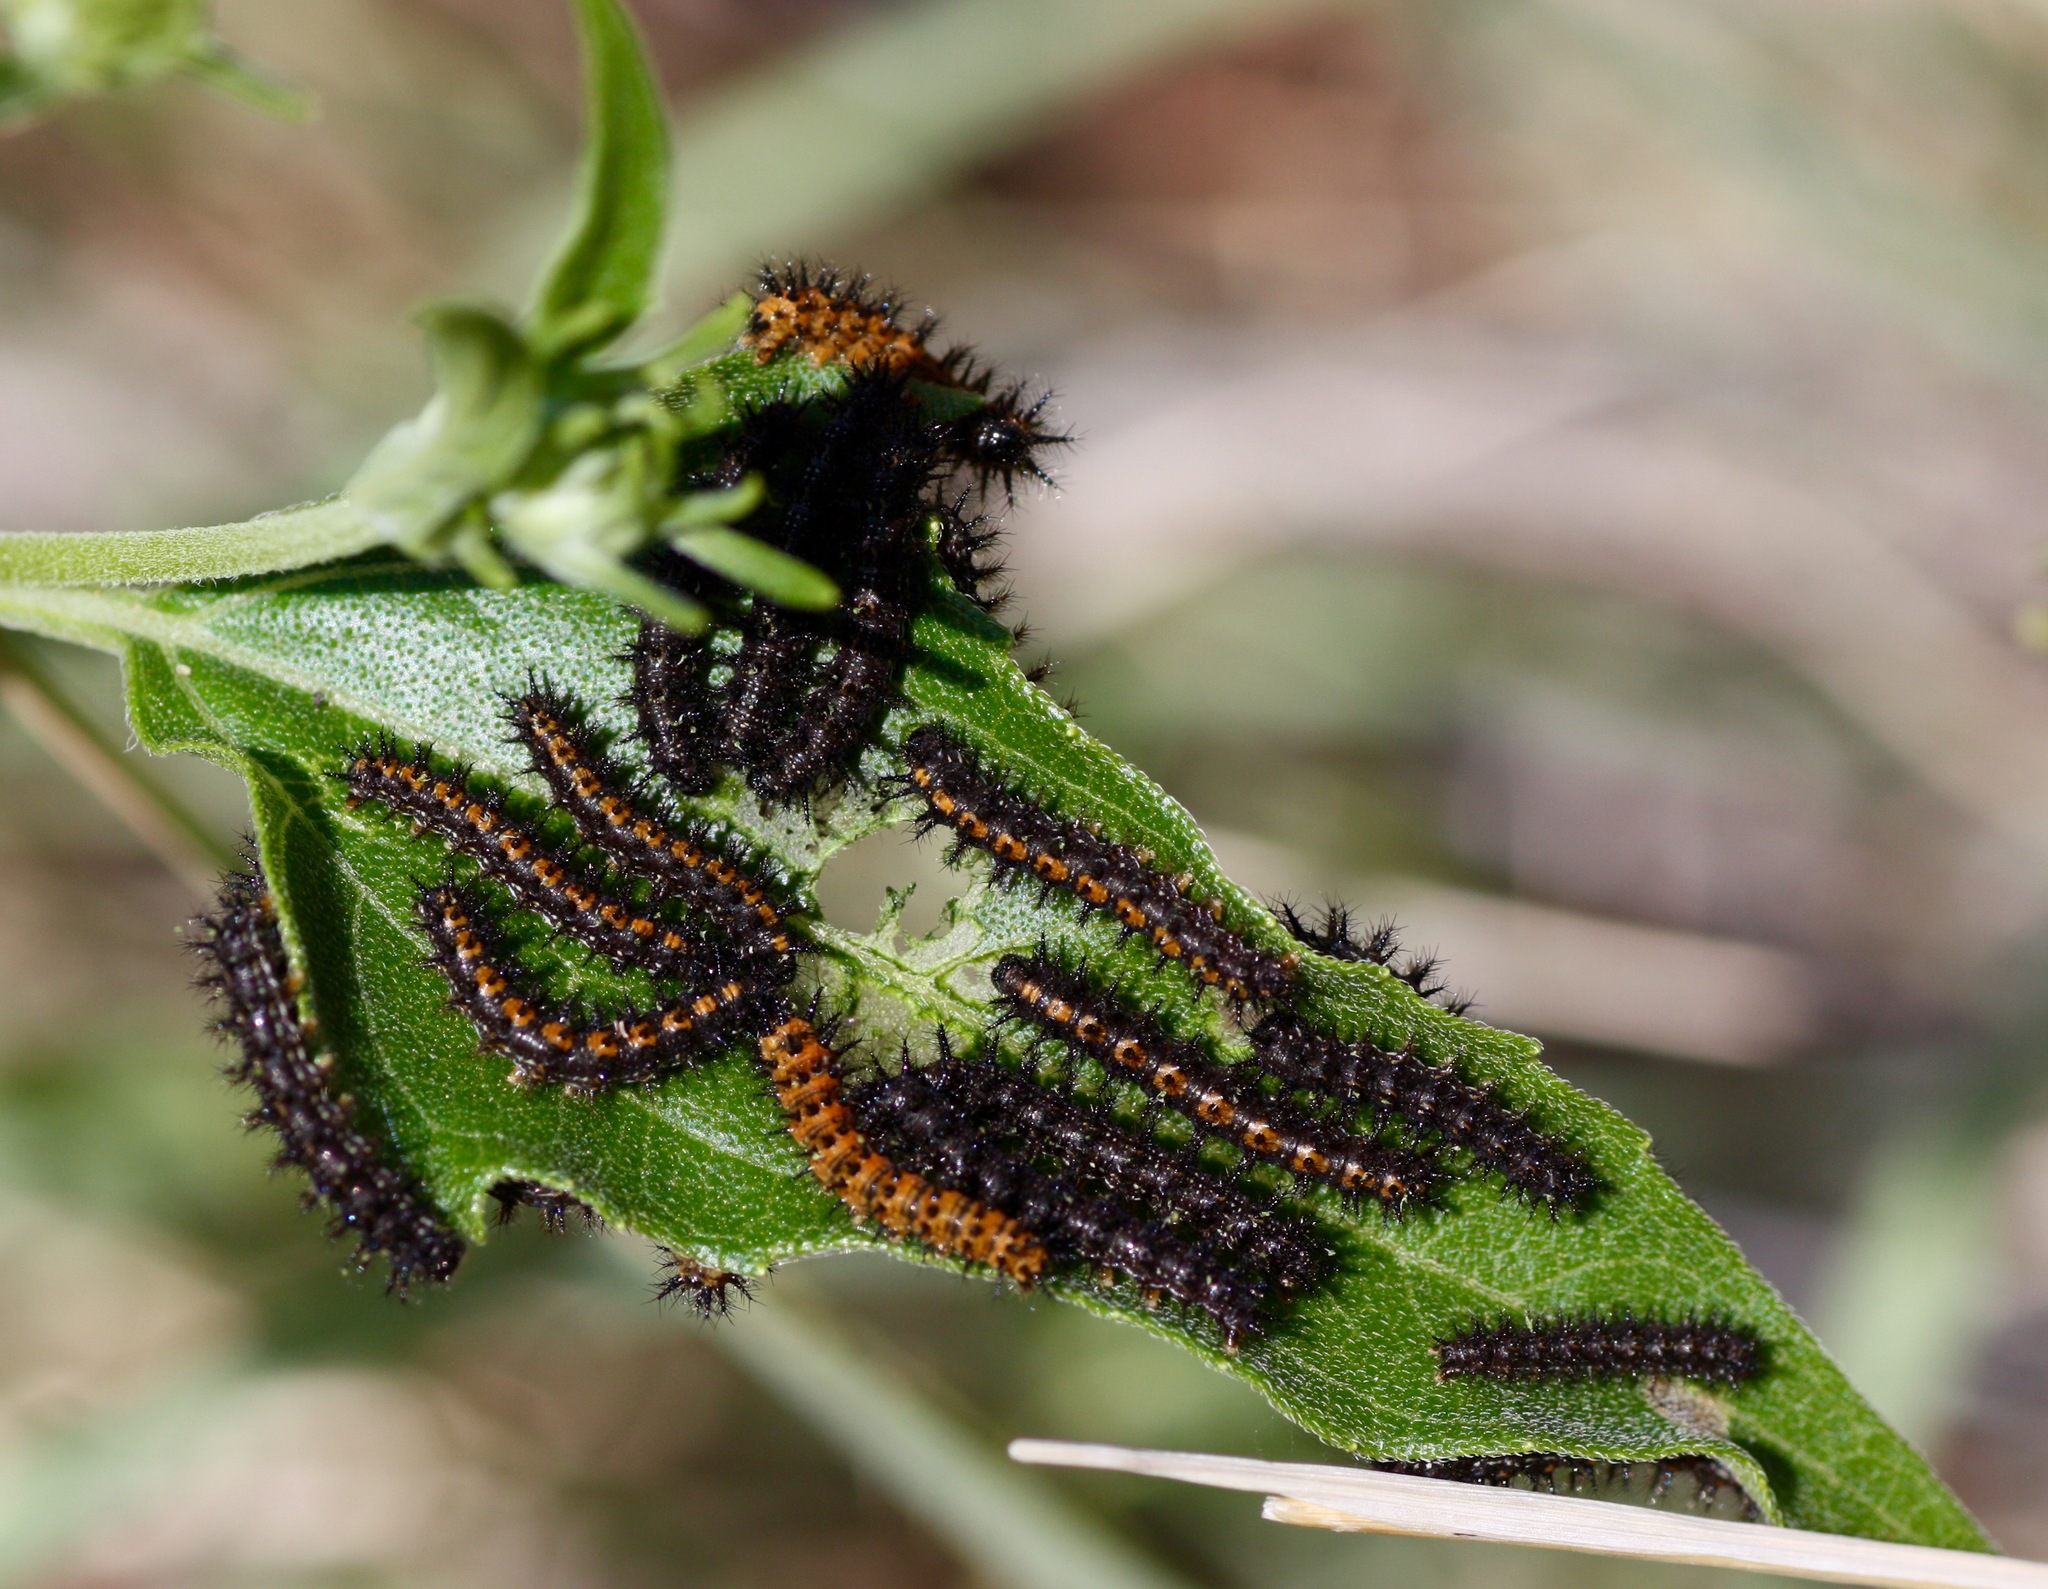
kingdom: Animalia
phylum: Arthropoda
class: Insecta
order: Lepidoptera
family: Nymphalidae
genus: Chlosyne
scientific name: Chlosyne lacinia
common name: Bordered patch
